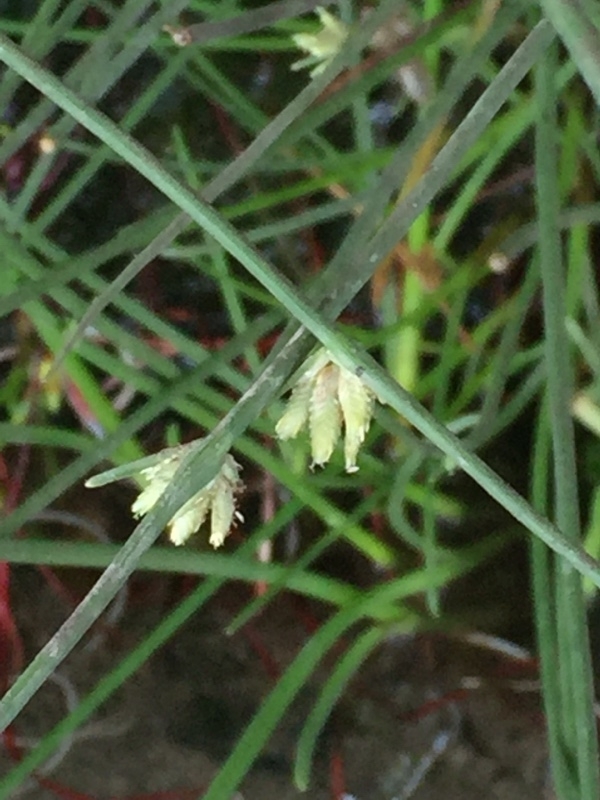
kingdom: Plantae
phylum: Tracheophyta
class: Liliopsida
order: Poales
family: Cyperaceae
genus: Cyperus
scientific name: Cyperus laevigatus
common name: Smooth flat sedge
